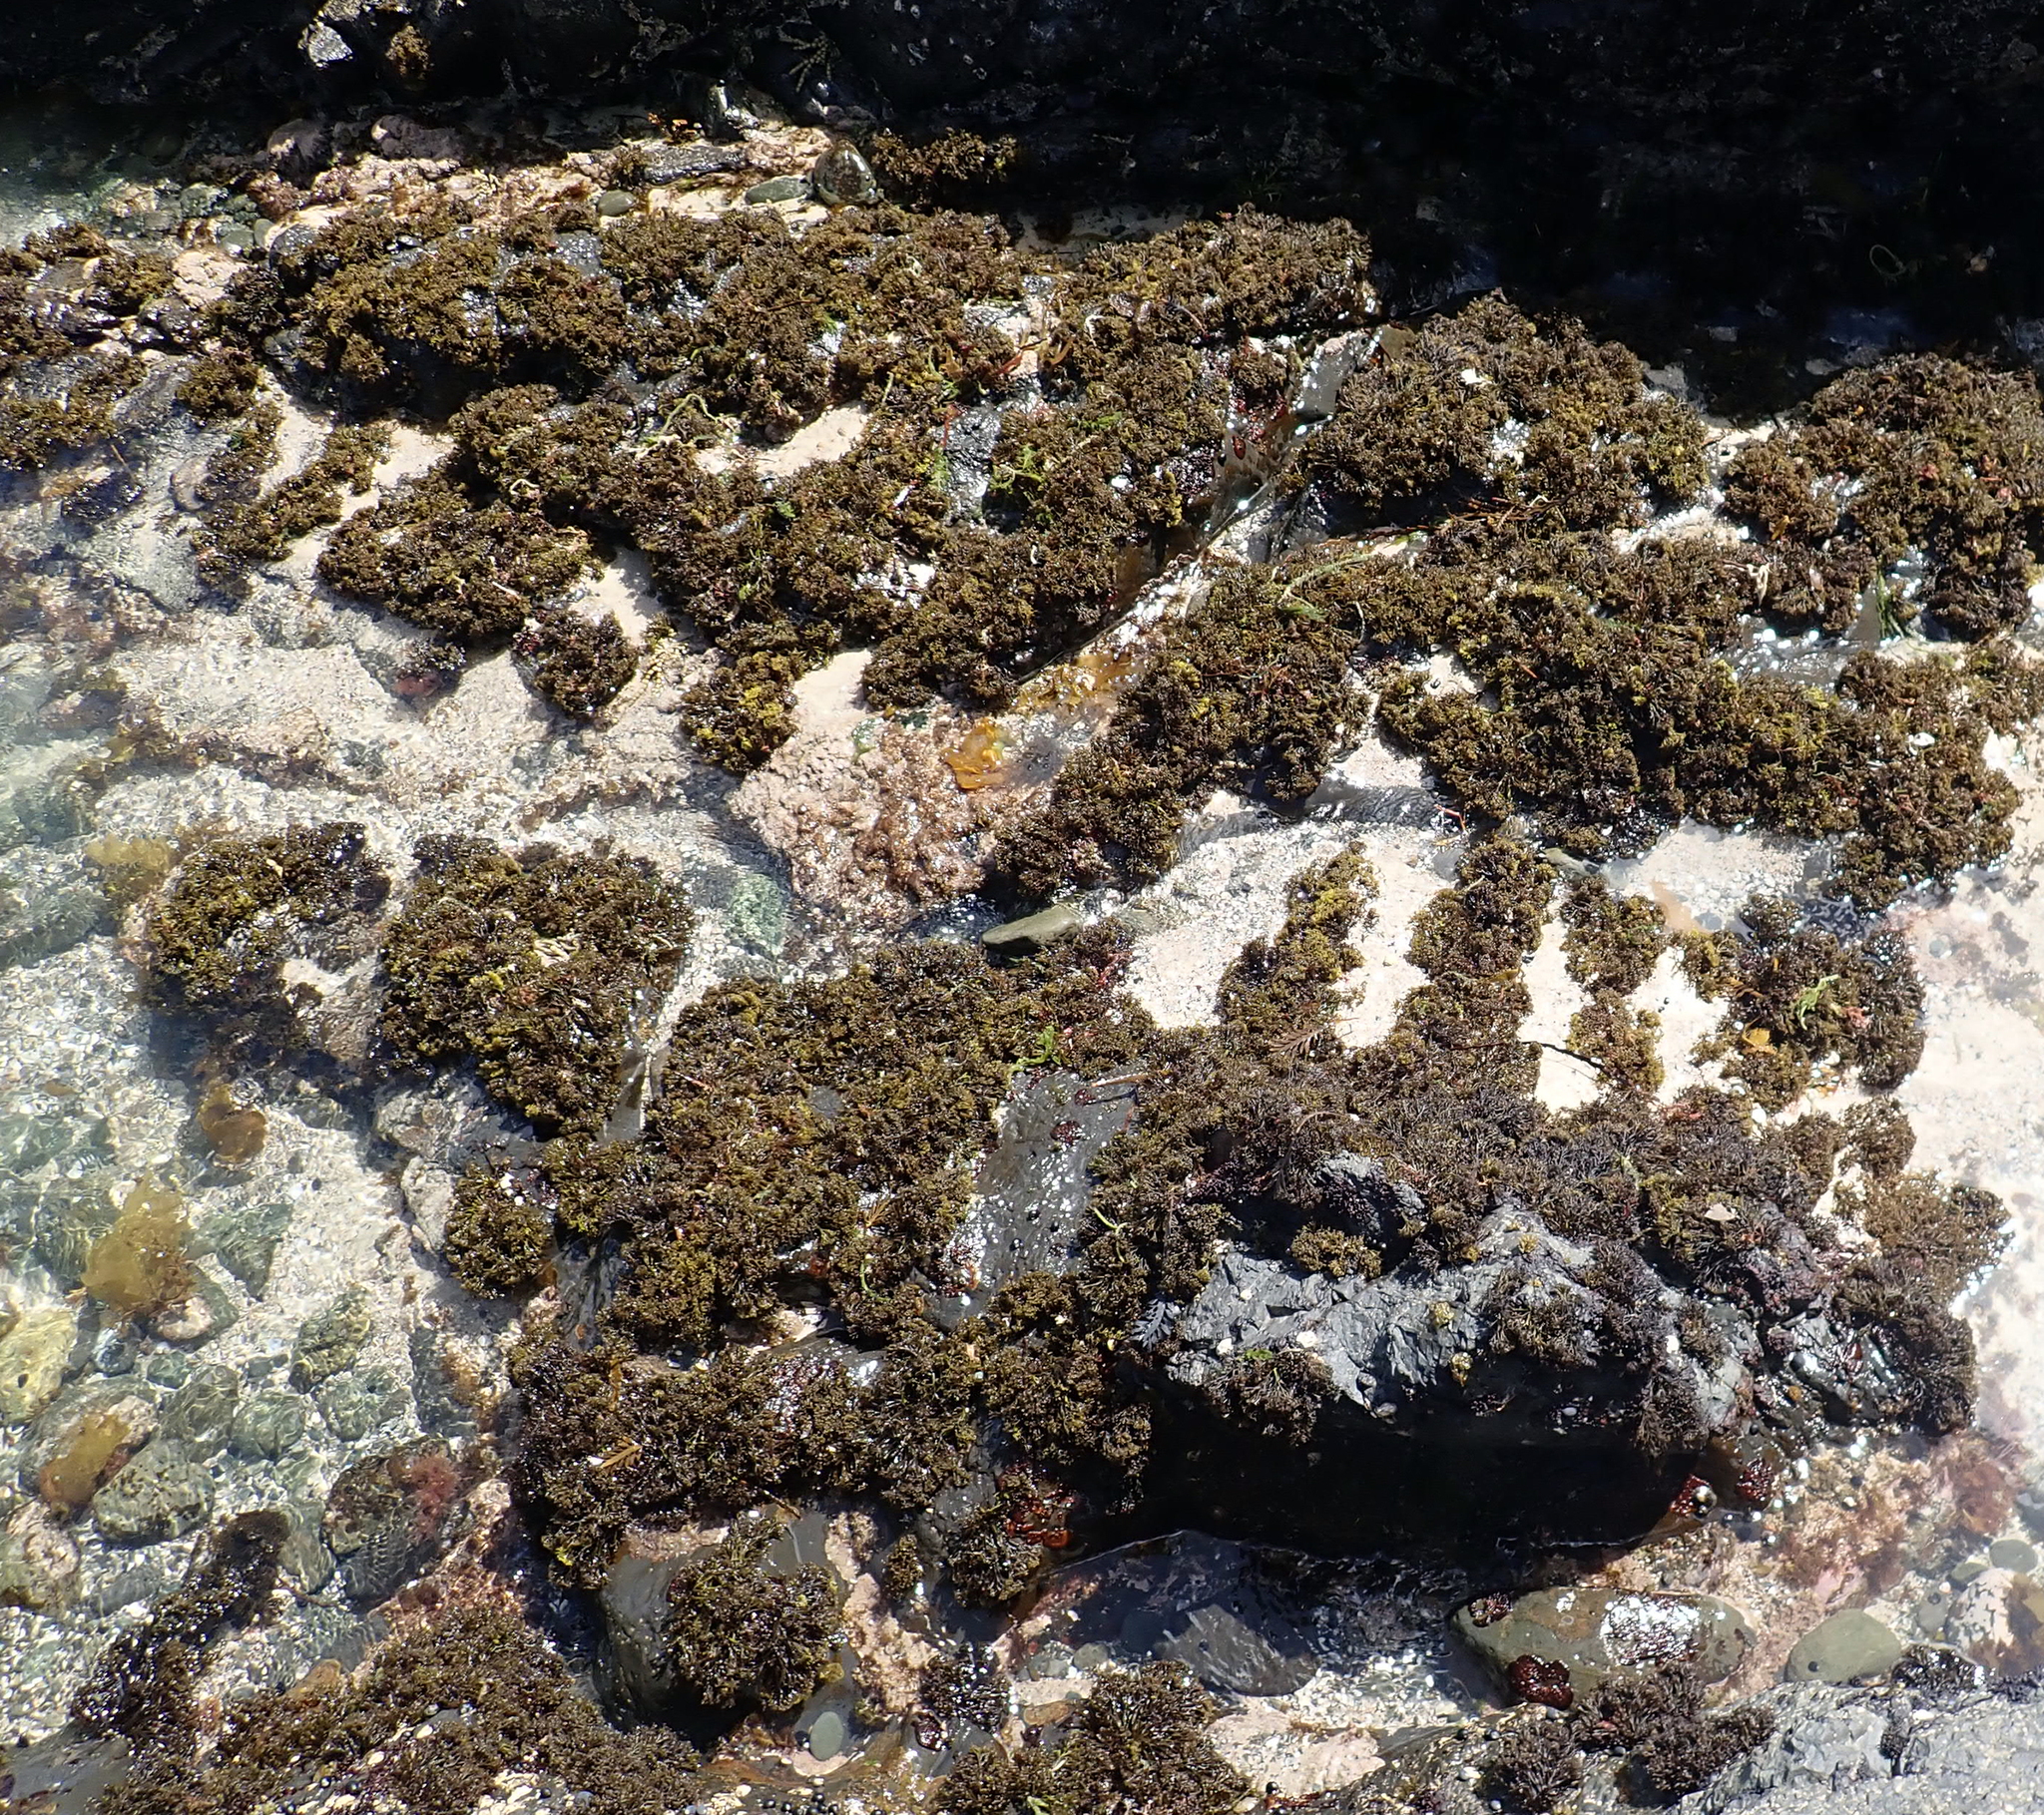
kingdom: Plantae
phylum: Rhodophyta
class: Florideophyceae
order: Gigartinales
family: Gigartinaceae
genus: Psilophycus
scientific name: Psilophycus alveatus
